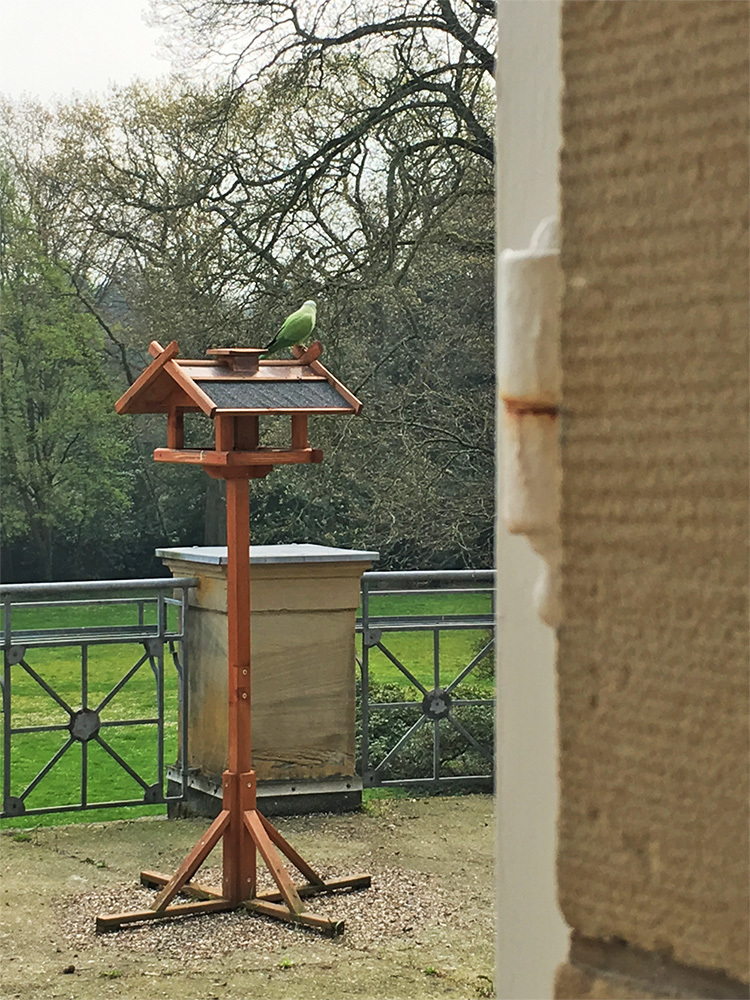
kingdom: Animalia
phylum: Chordata
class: Aves
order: Psittaciformes
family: Psittacidae
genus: Psittacula
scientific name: Psittacula krameri
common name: Rose-ringed parakeet
